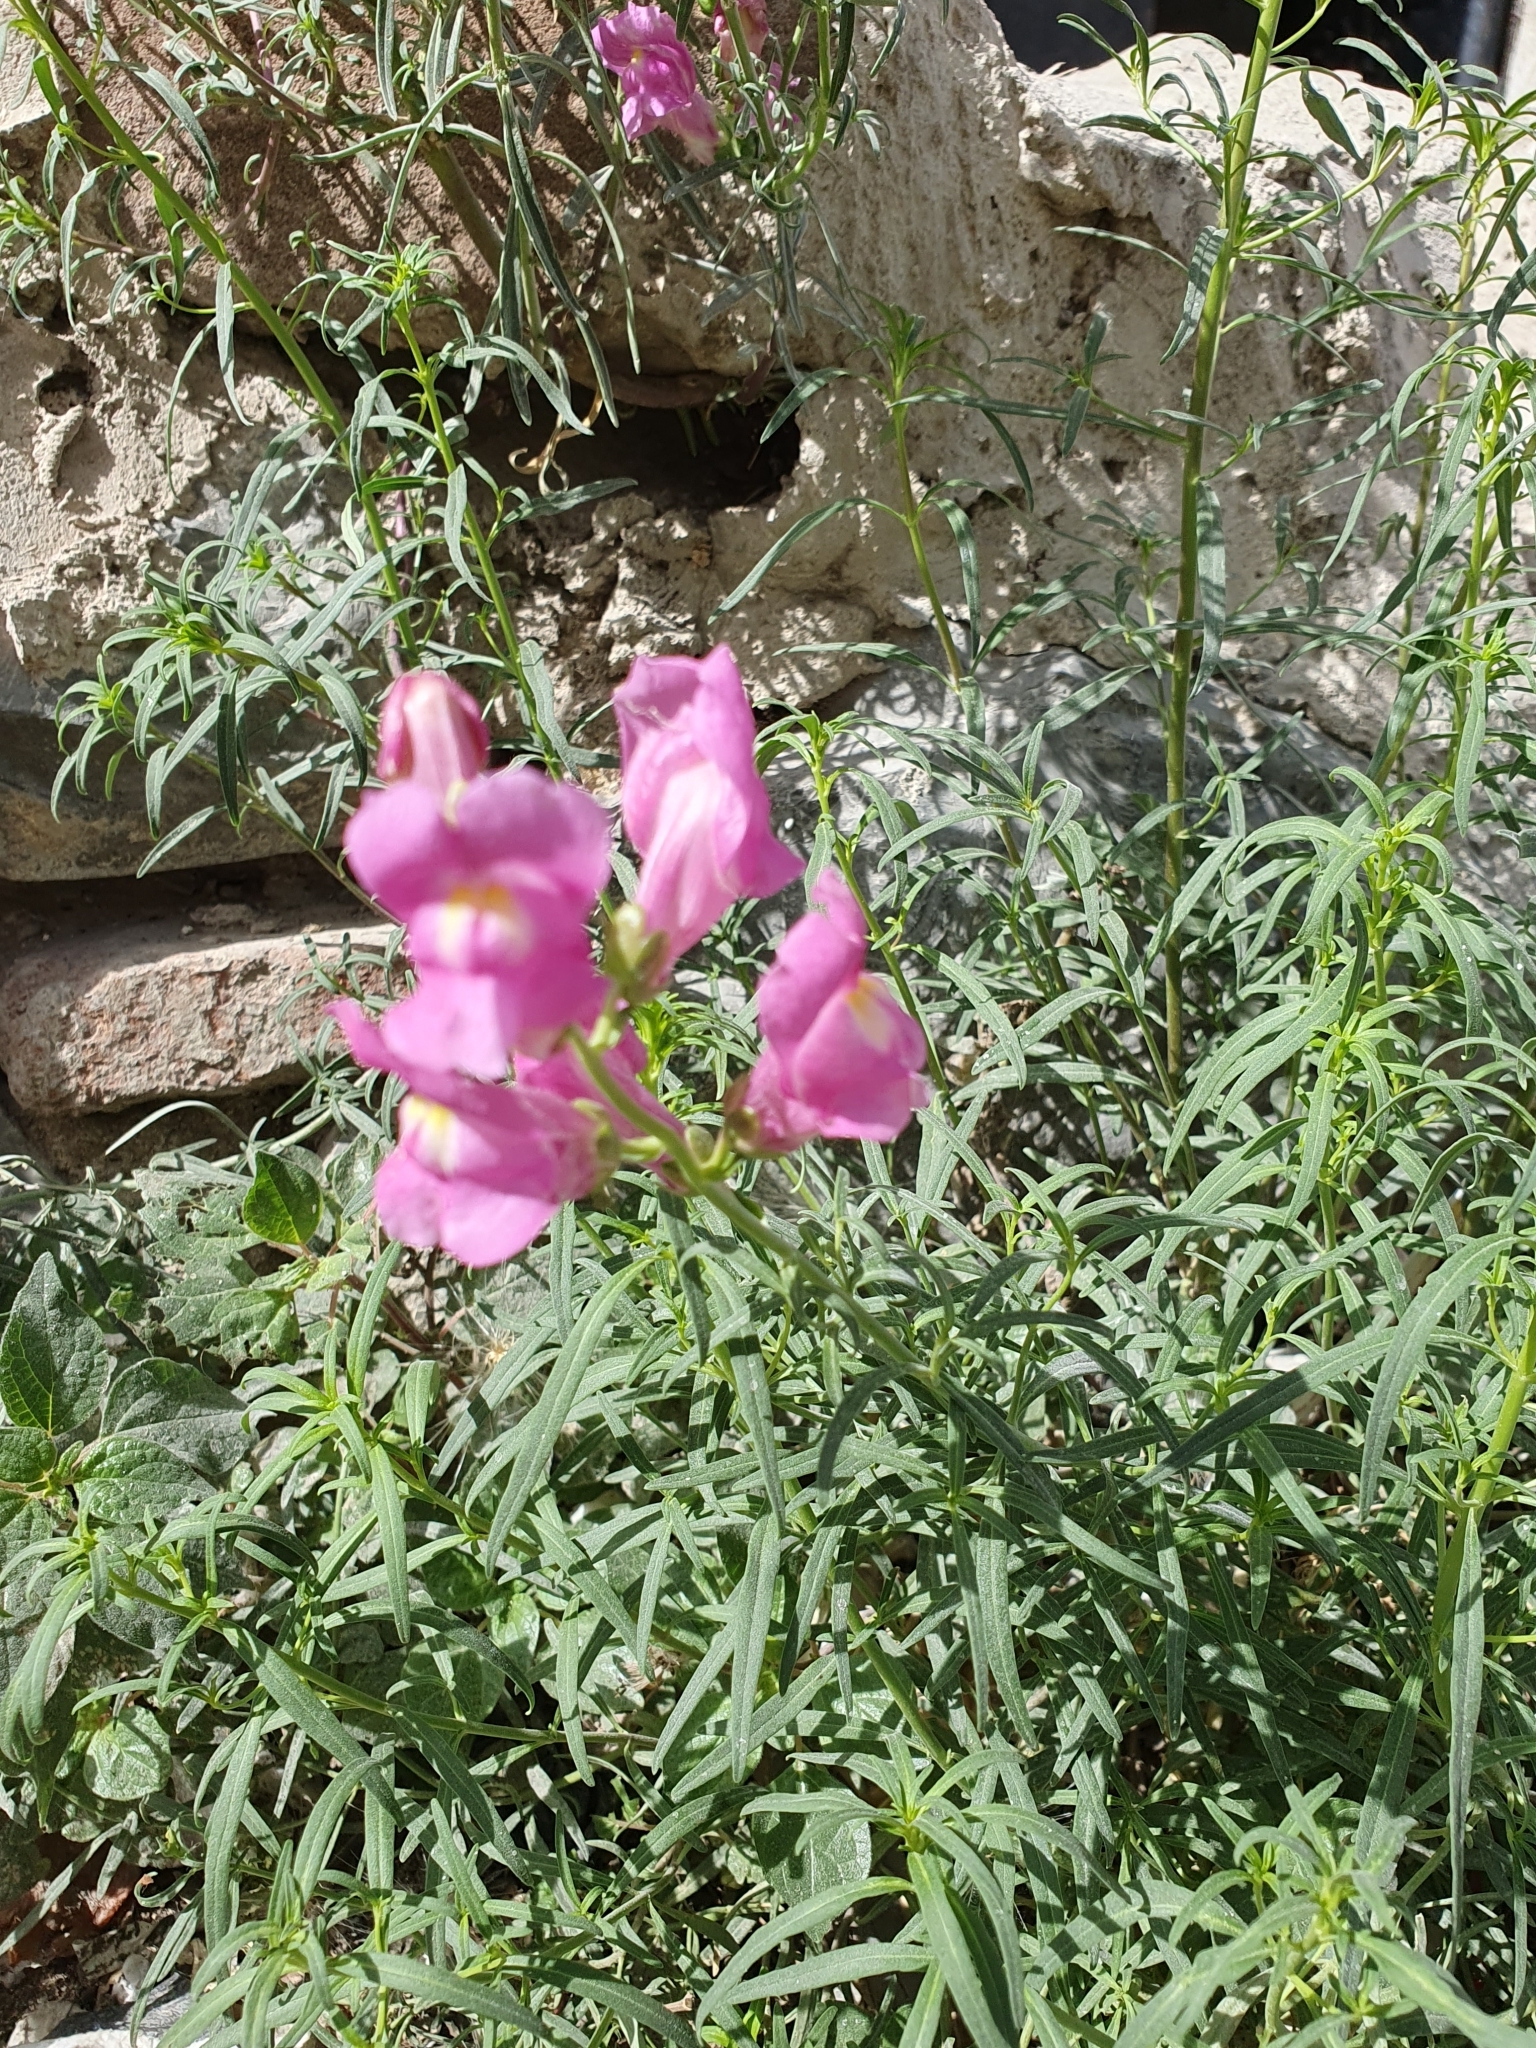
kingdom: Plantae
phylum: Tracheophyta
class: Magnoliopsida
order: Lamiales
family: Plantaginaceae
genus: Antirrhinum
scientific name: Antirrhinum tortuosum
